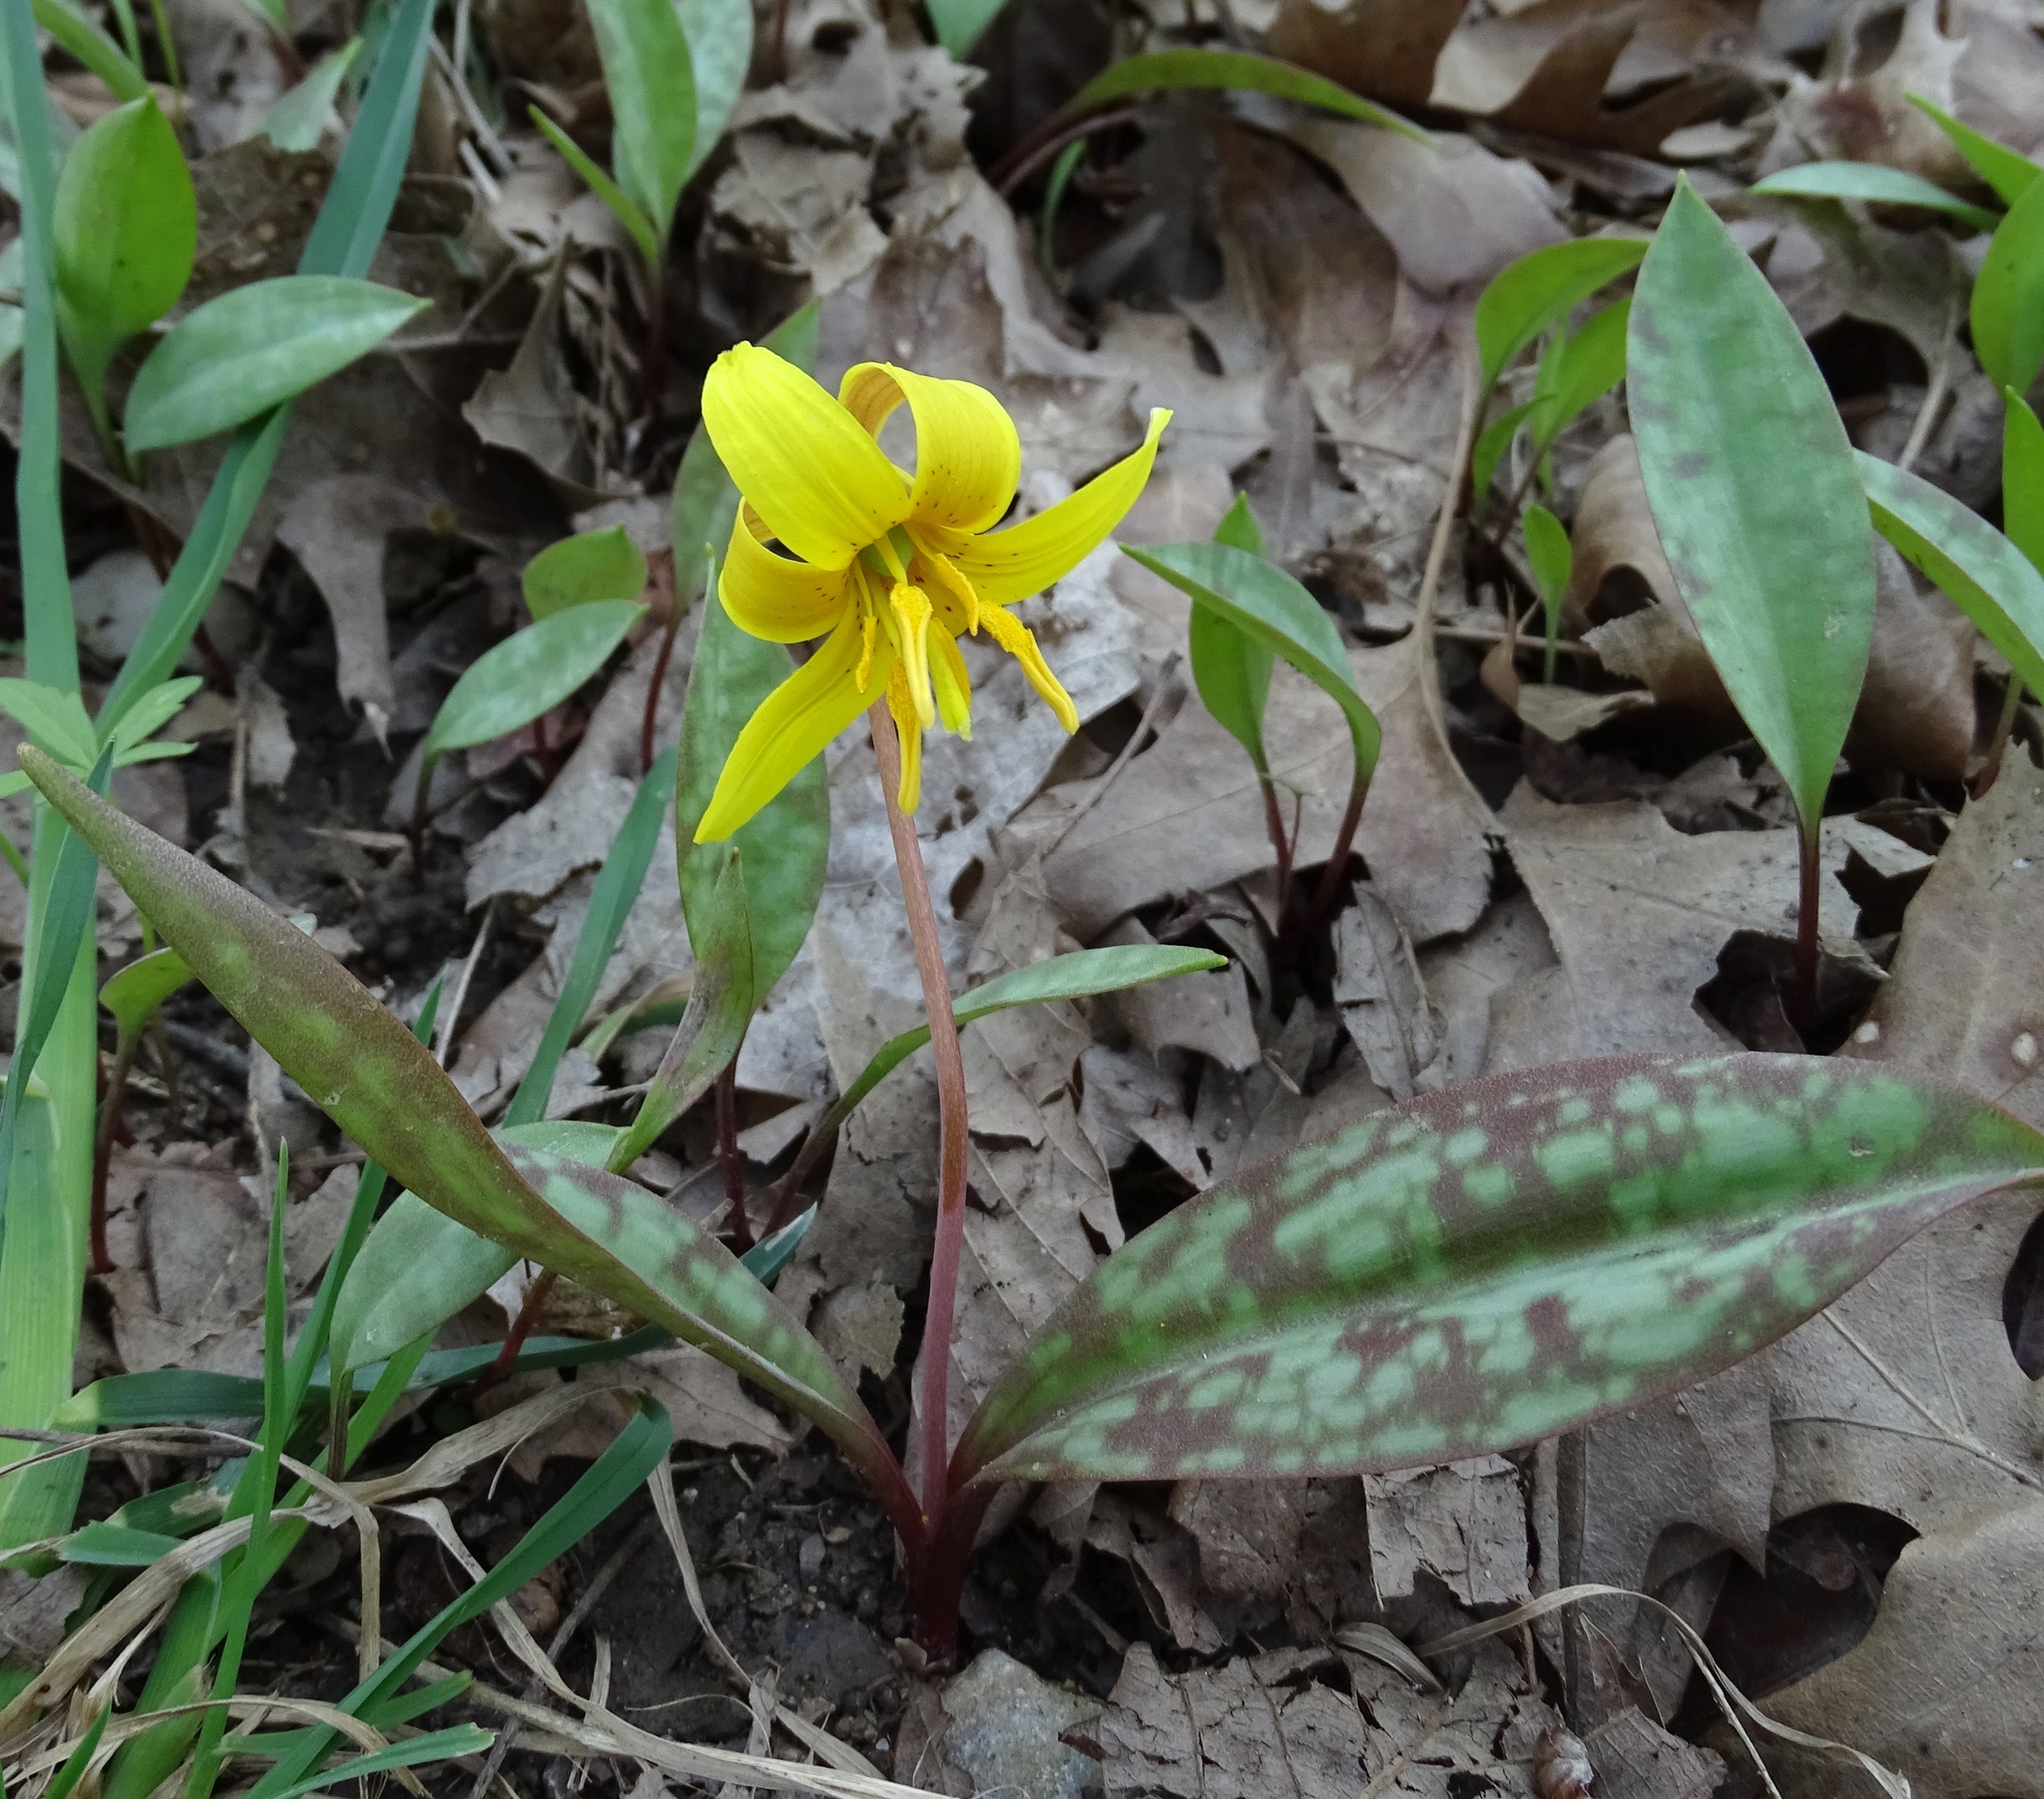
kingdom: Plantae
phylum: Tracheophyta
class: Liliopsida
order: Liliales
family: Liliaceae
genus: Erythronium
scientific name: Erythronium americanum
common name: Yellow adder's-tongue
